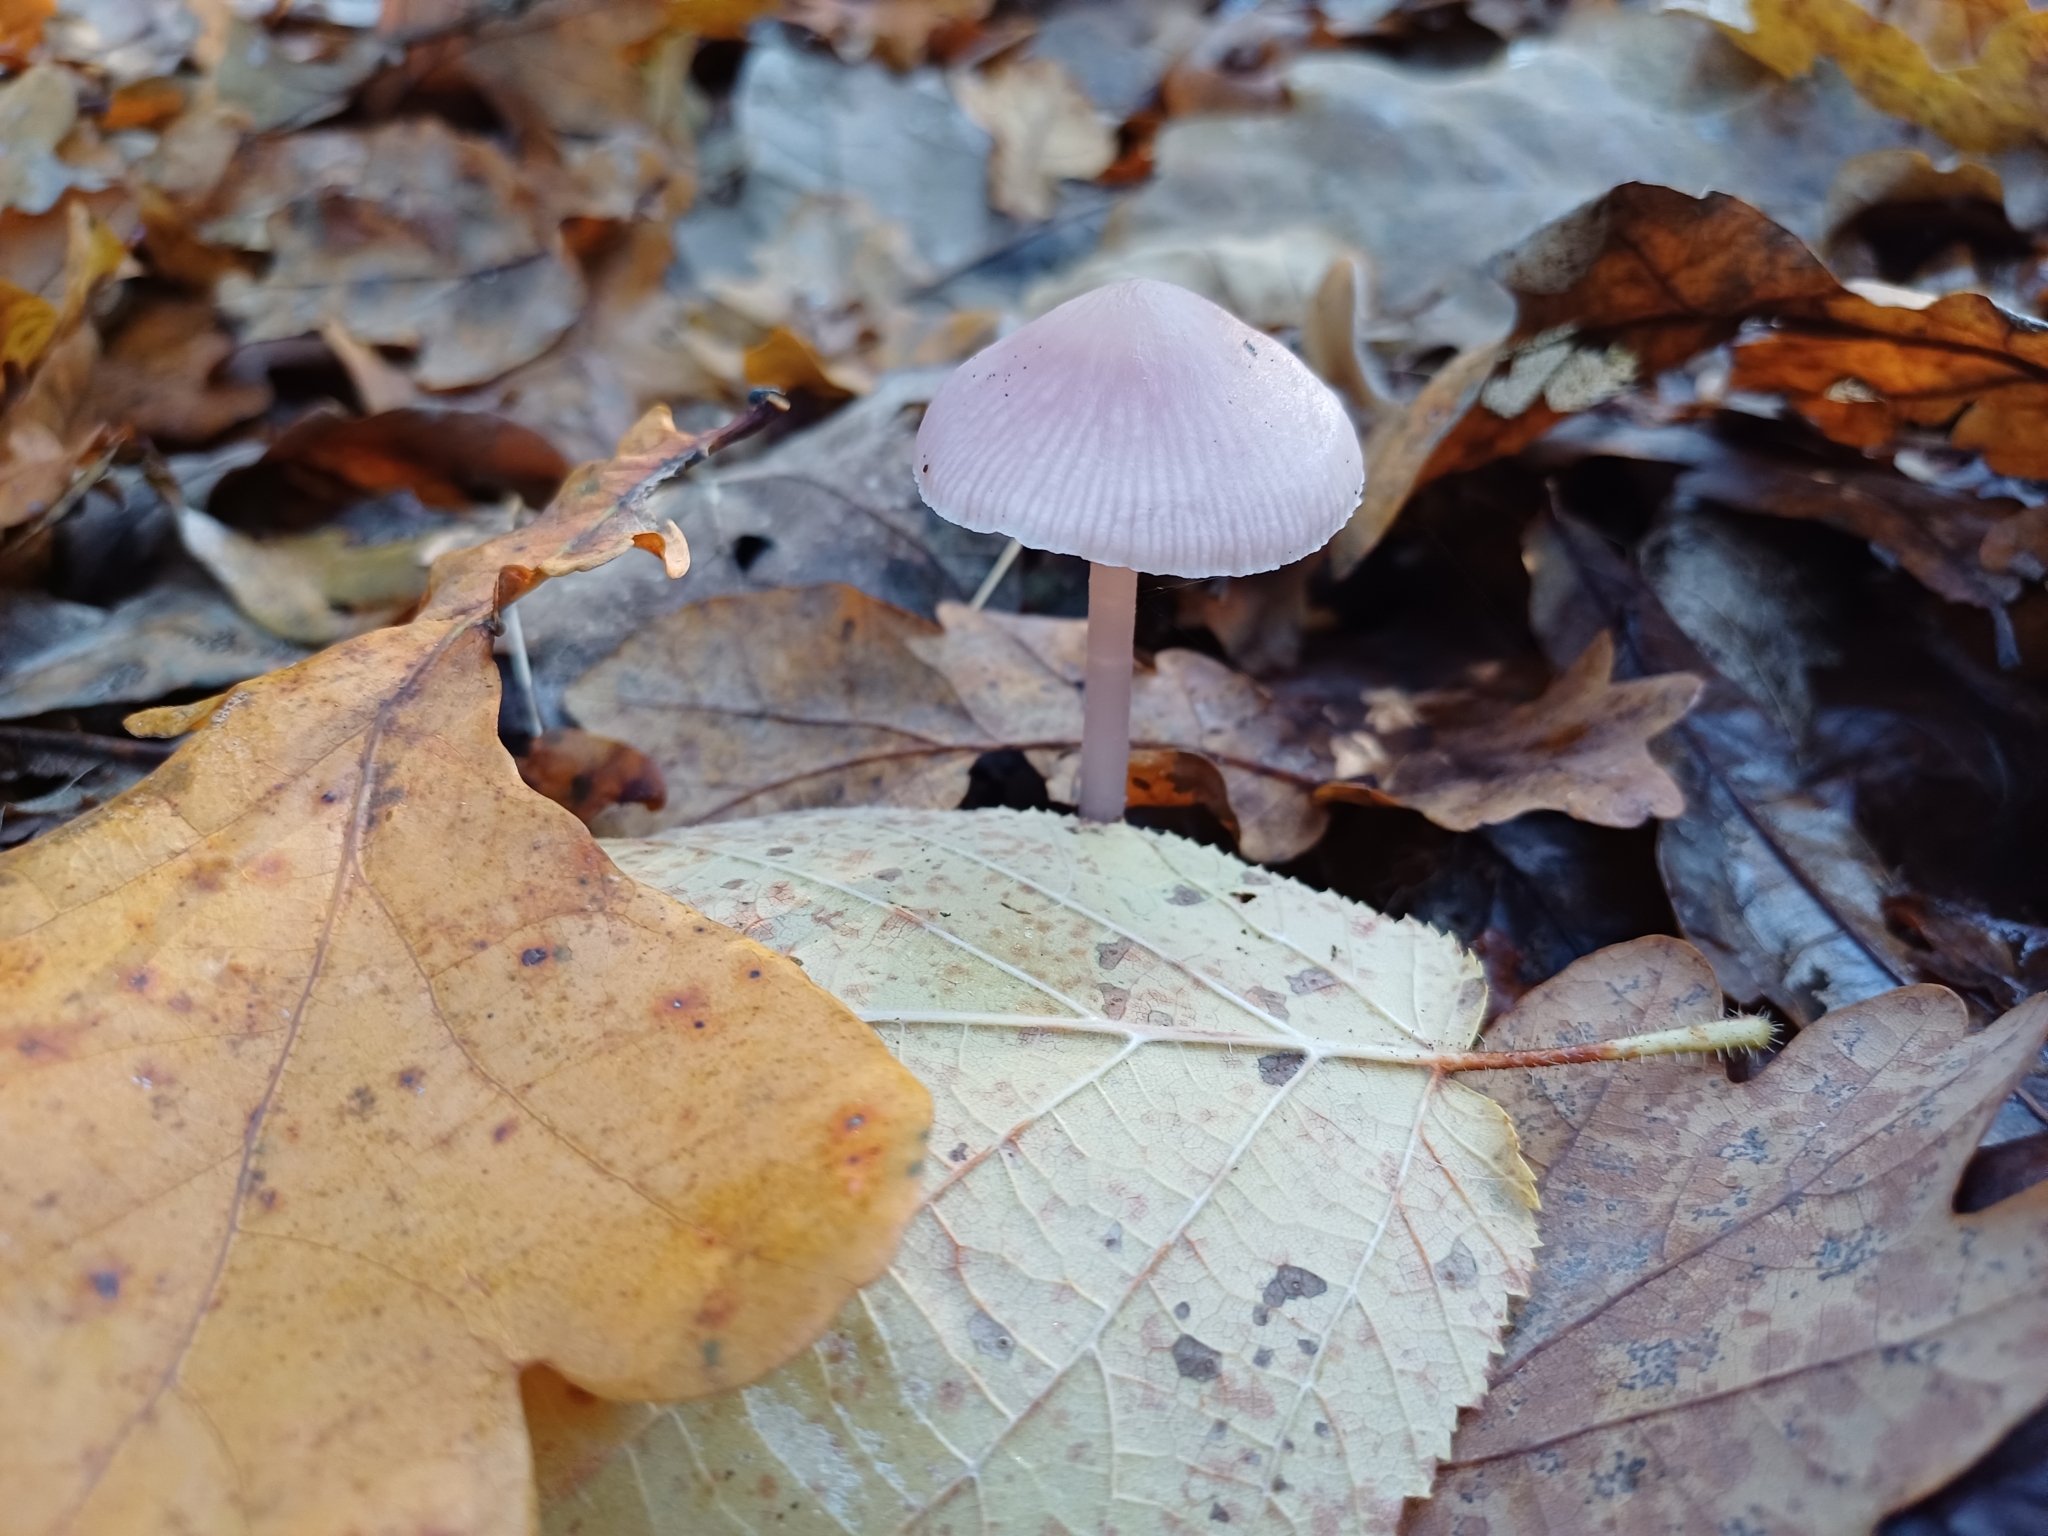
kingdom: Fungi
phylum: Basidiomycota
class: Agaricomycetes
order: Agaricales
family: Mycenaceae
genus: Mycena
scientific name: Mycena rosea
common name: Rosy bonnet
